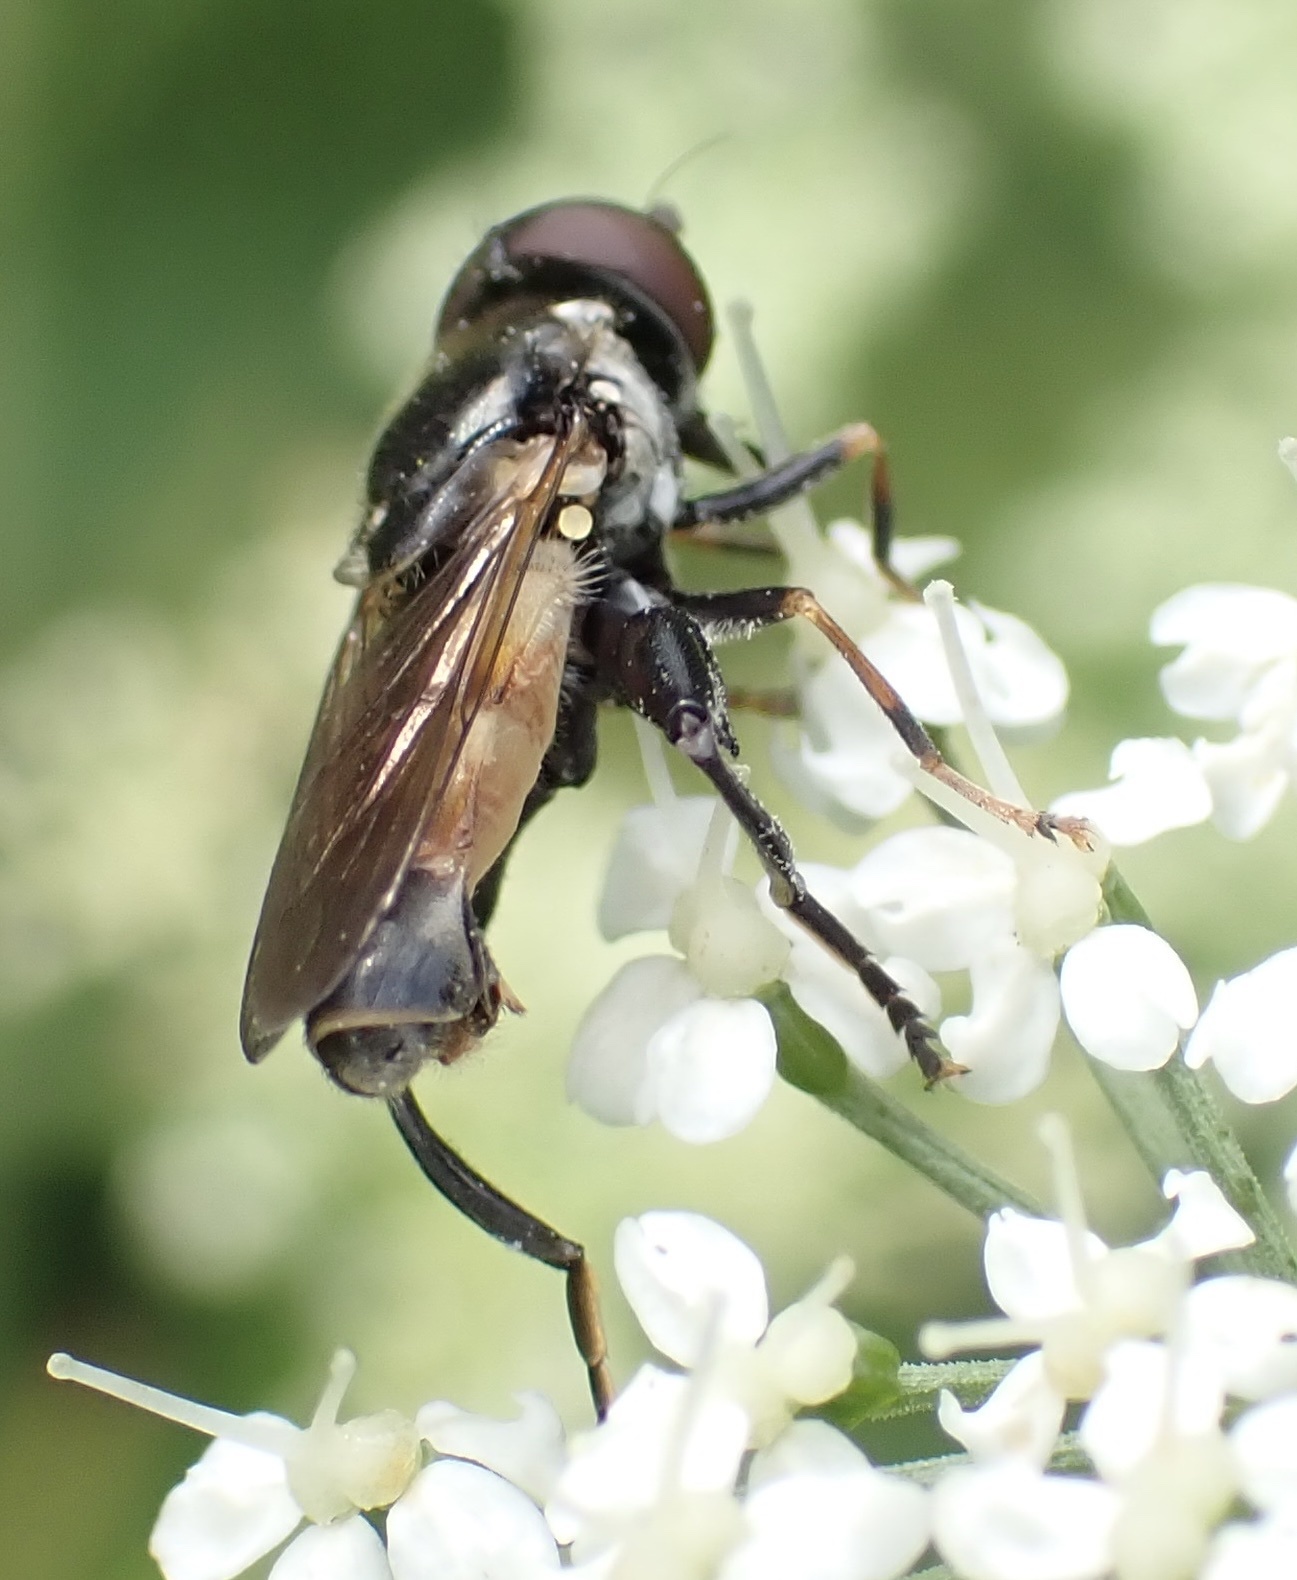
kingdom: Animalia
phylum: Arthropoda
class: Insecta
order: Diptera
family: Syrphidae
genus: Tropidia
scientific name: Tropidia scita
